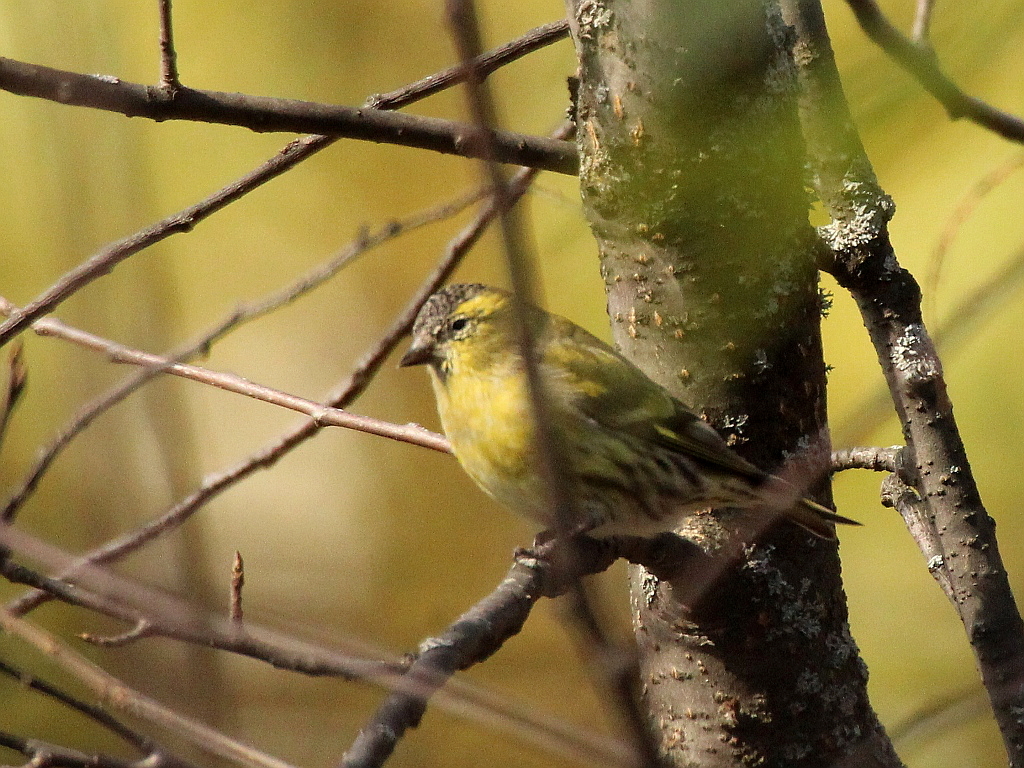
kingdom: Animalia
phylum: Chordata
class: Aves
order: Passeriformes
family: Fringillidae
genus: Spinus
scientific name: Spinus spinus
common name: Eurasian siskin
